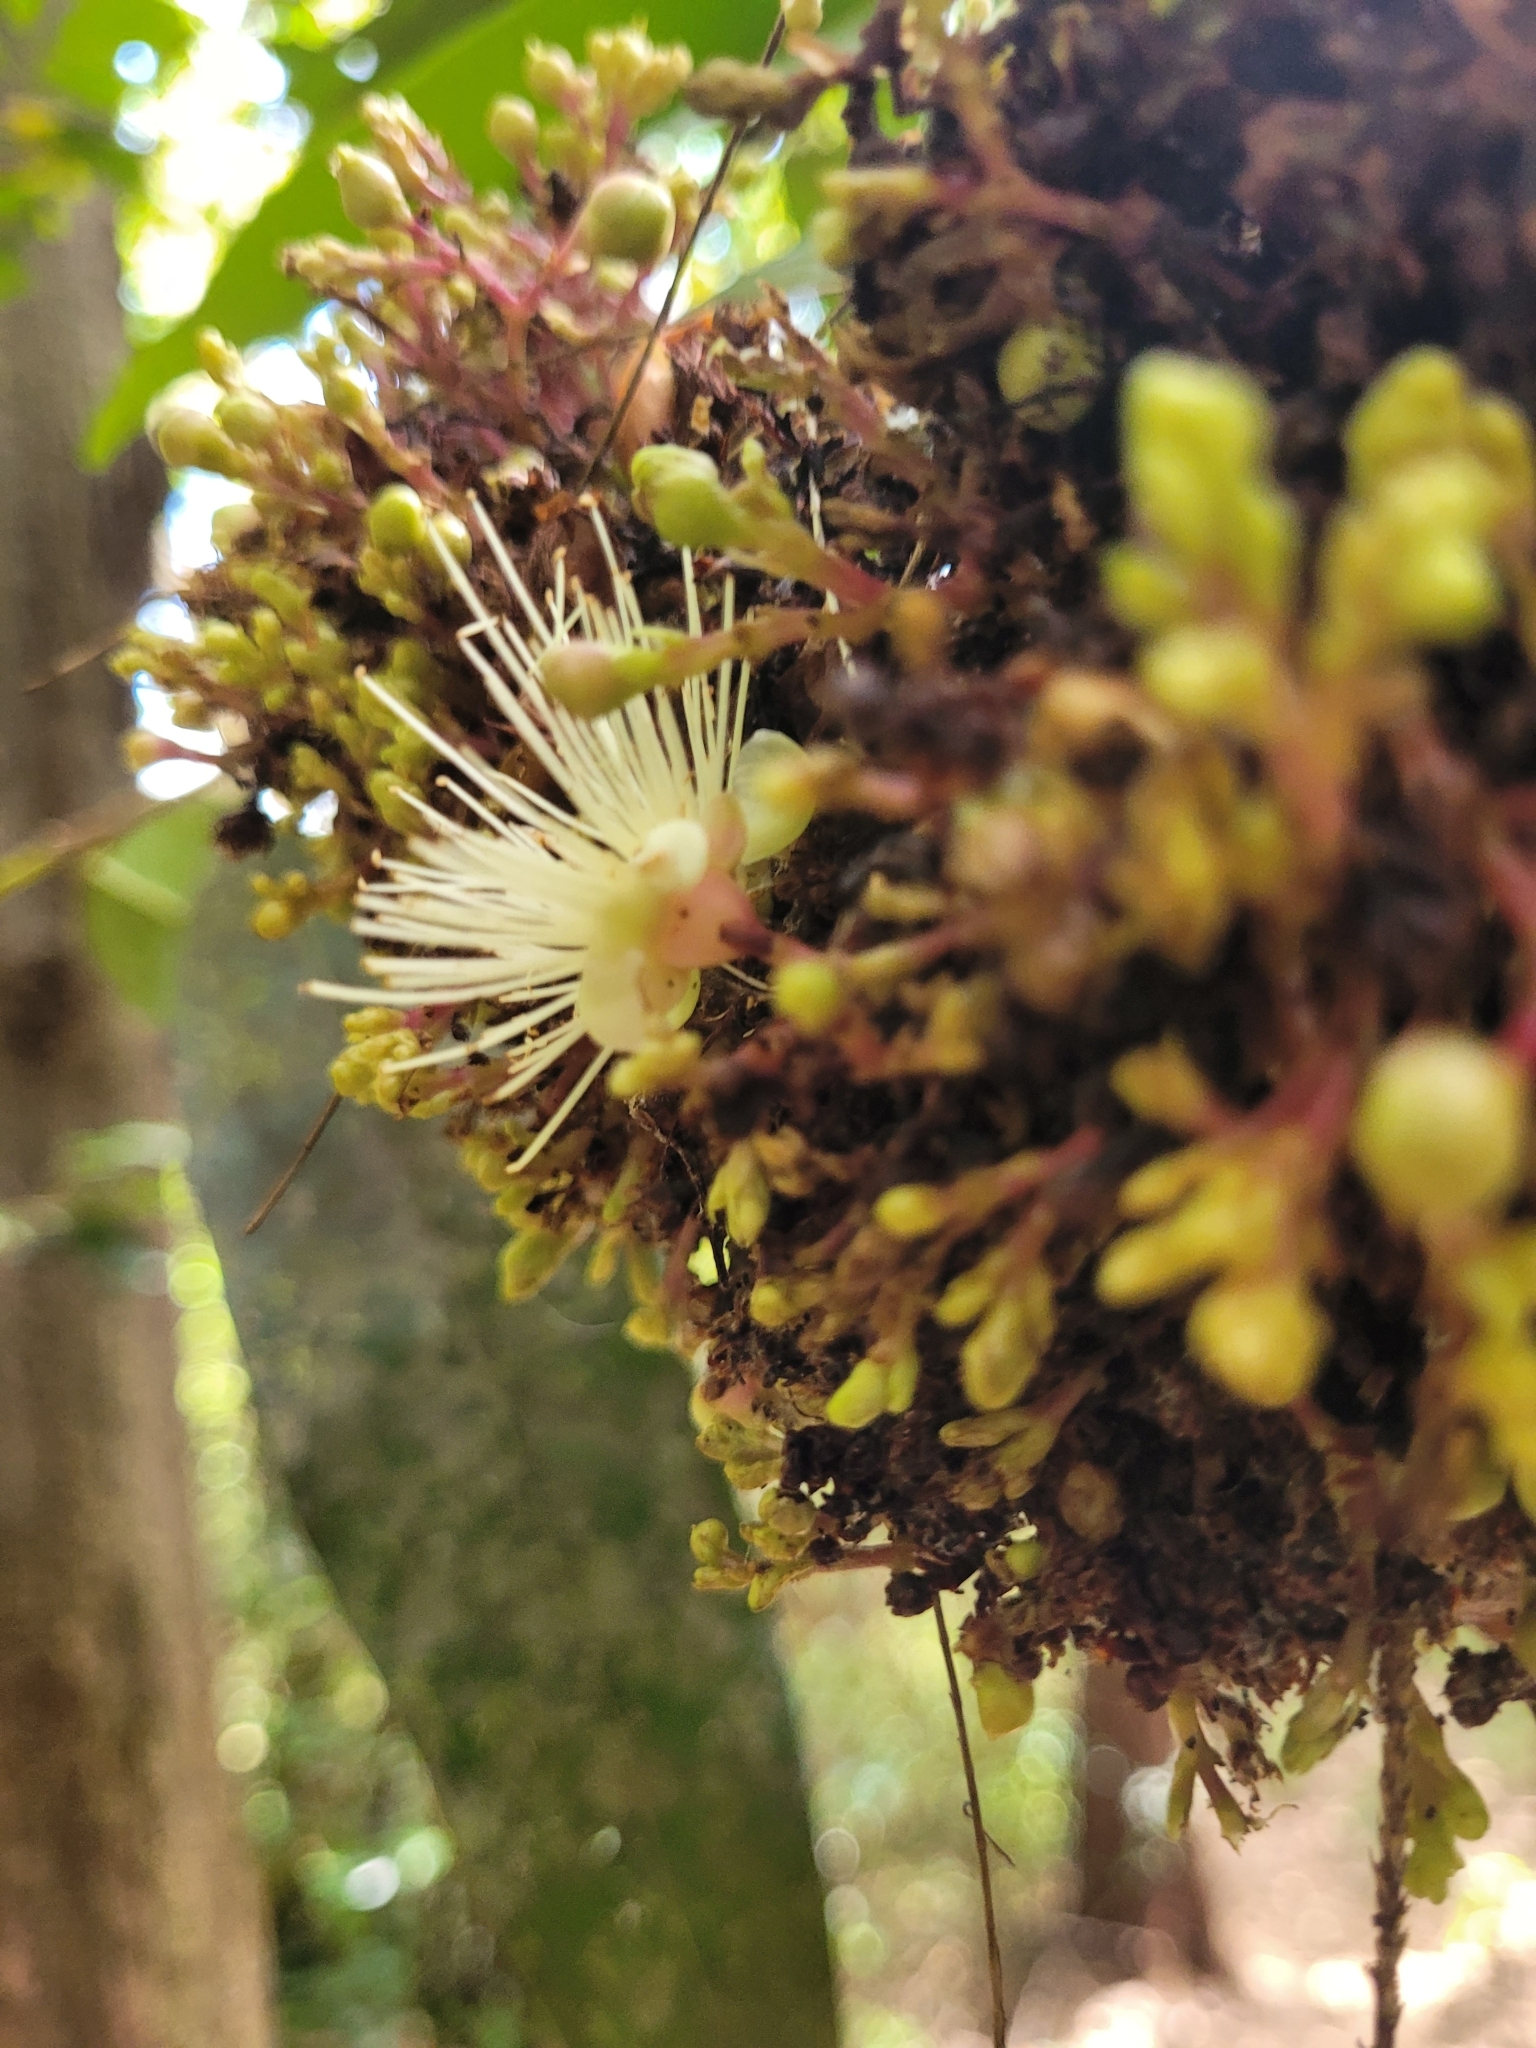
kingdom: Plantae
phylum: Tracheophyta
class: Magnoliopsida
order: Myrtales
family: Myrtaceae
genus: Syzygium
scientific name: Syzygium jambos
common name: Malabar plum
